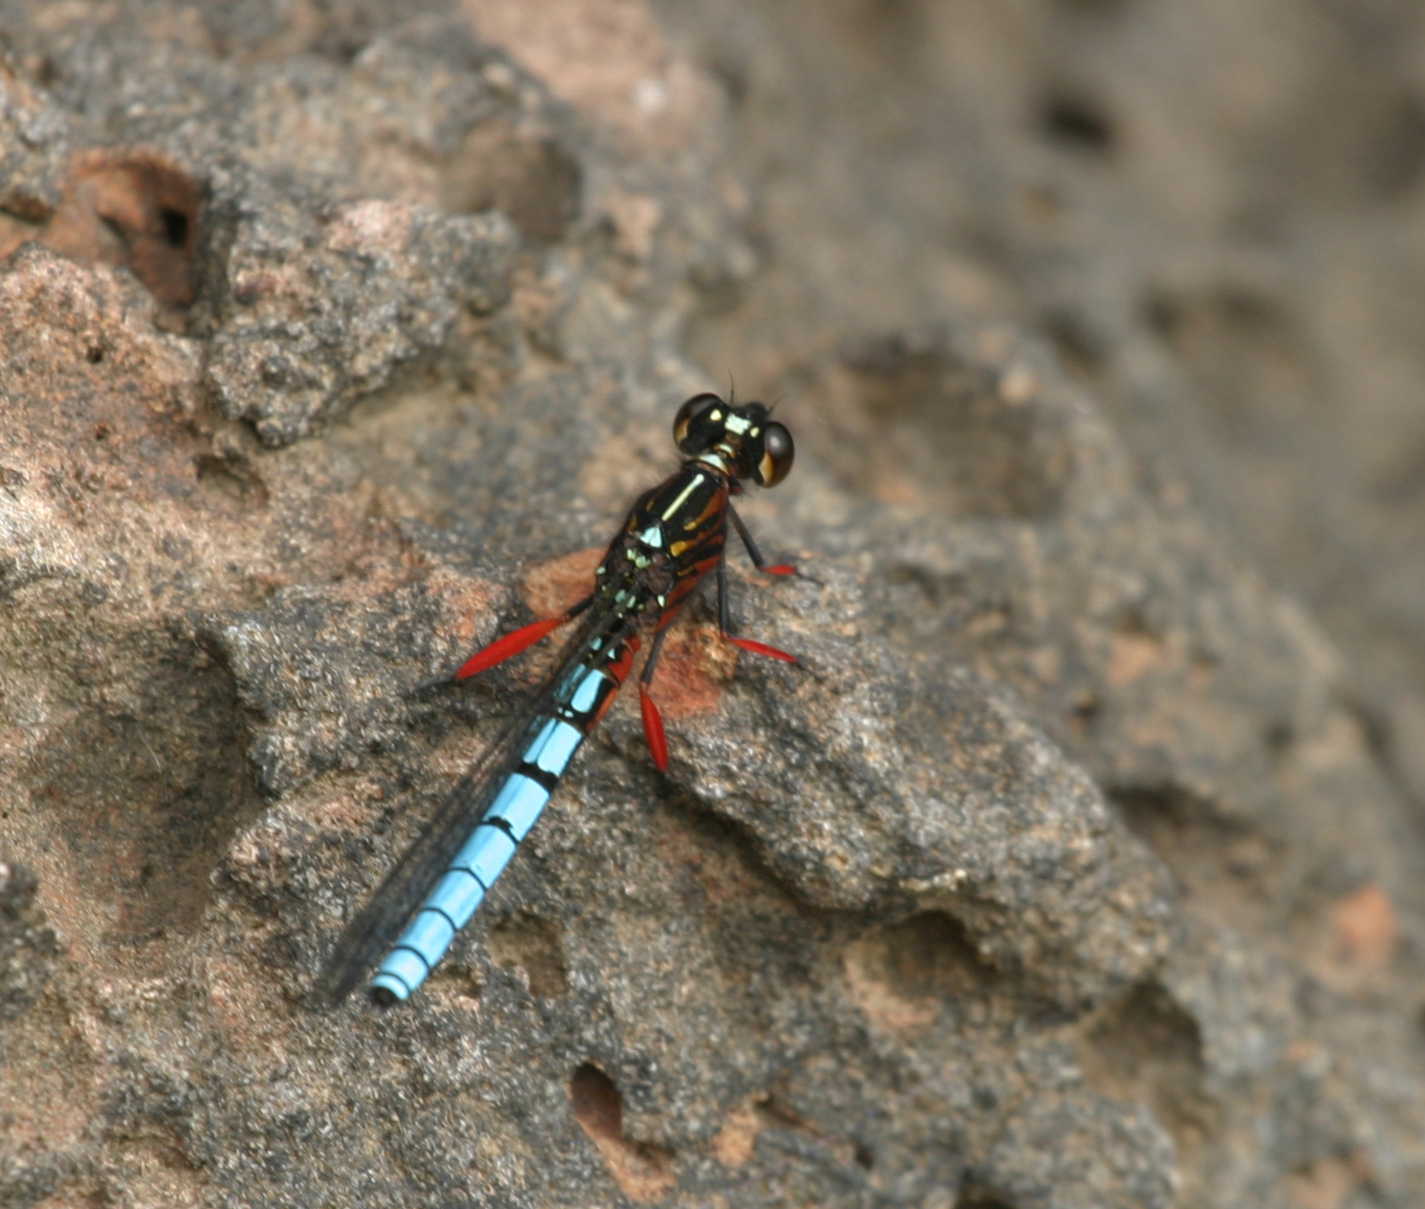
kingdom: Animalia
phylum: Arthropoda
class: Insecta
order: Odonata
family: Chlorocyphidae
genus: Platycypha
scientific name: Platycypha caligata
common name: Dancing jewel
